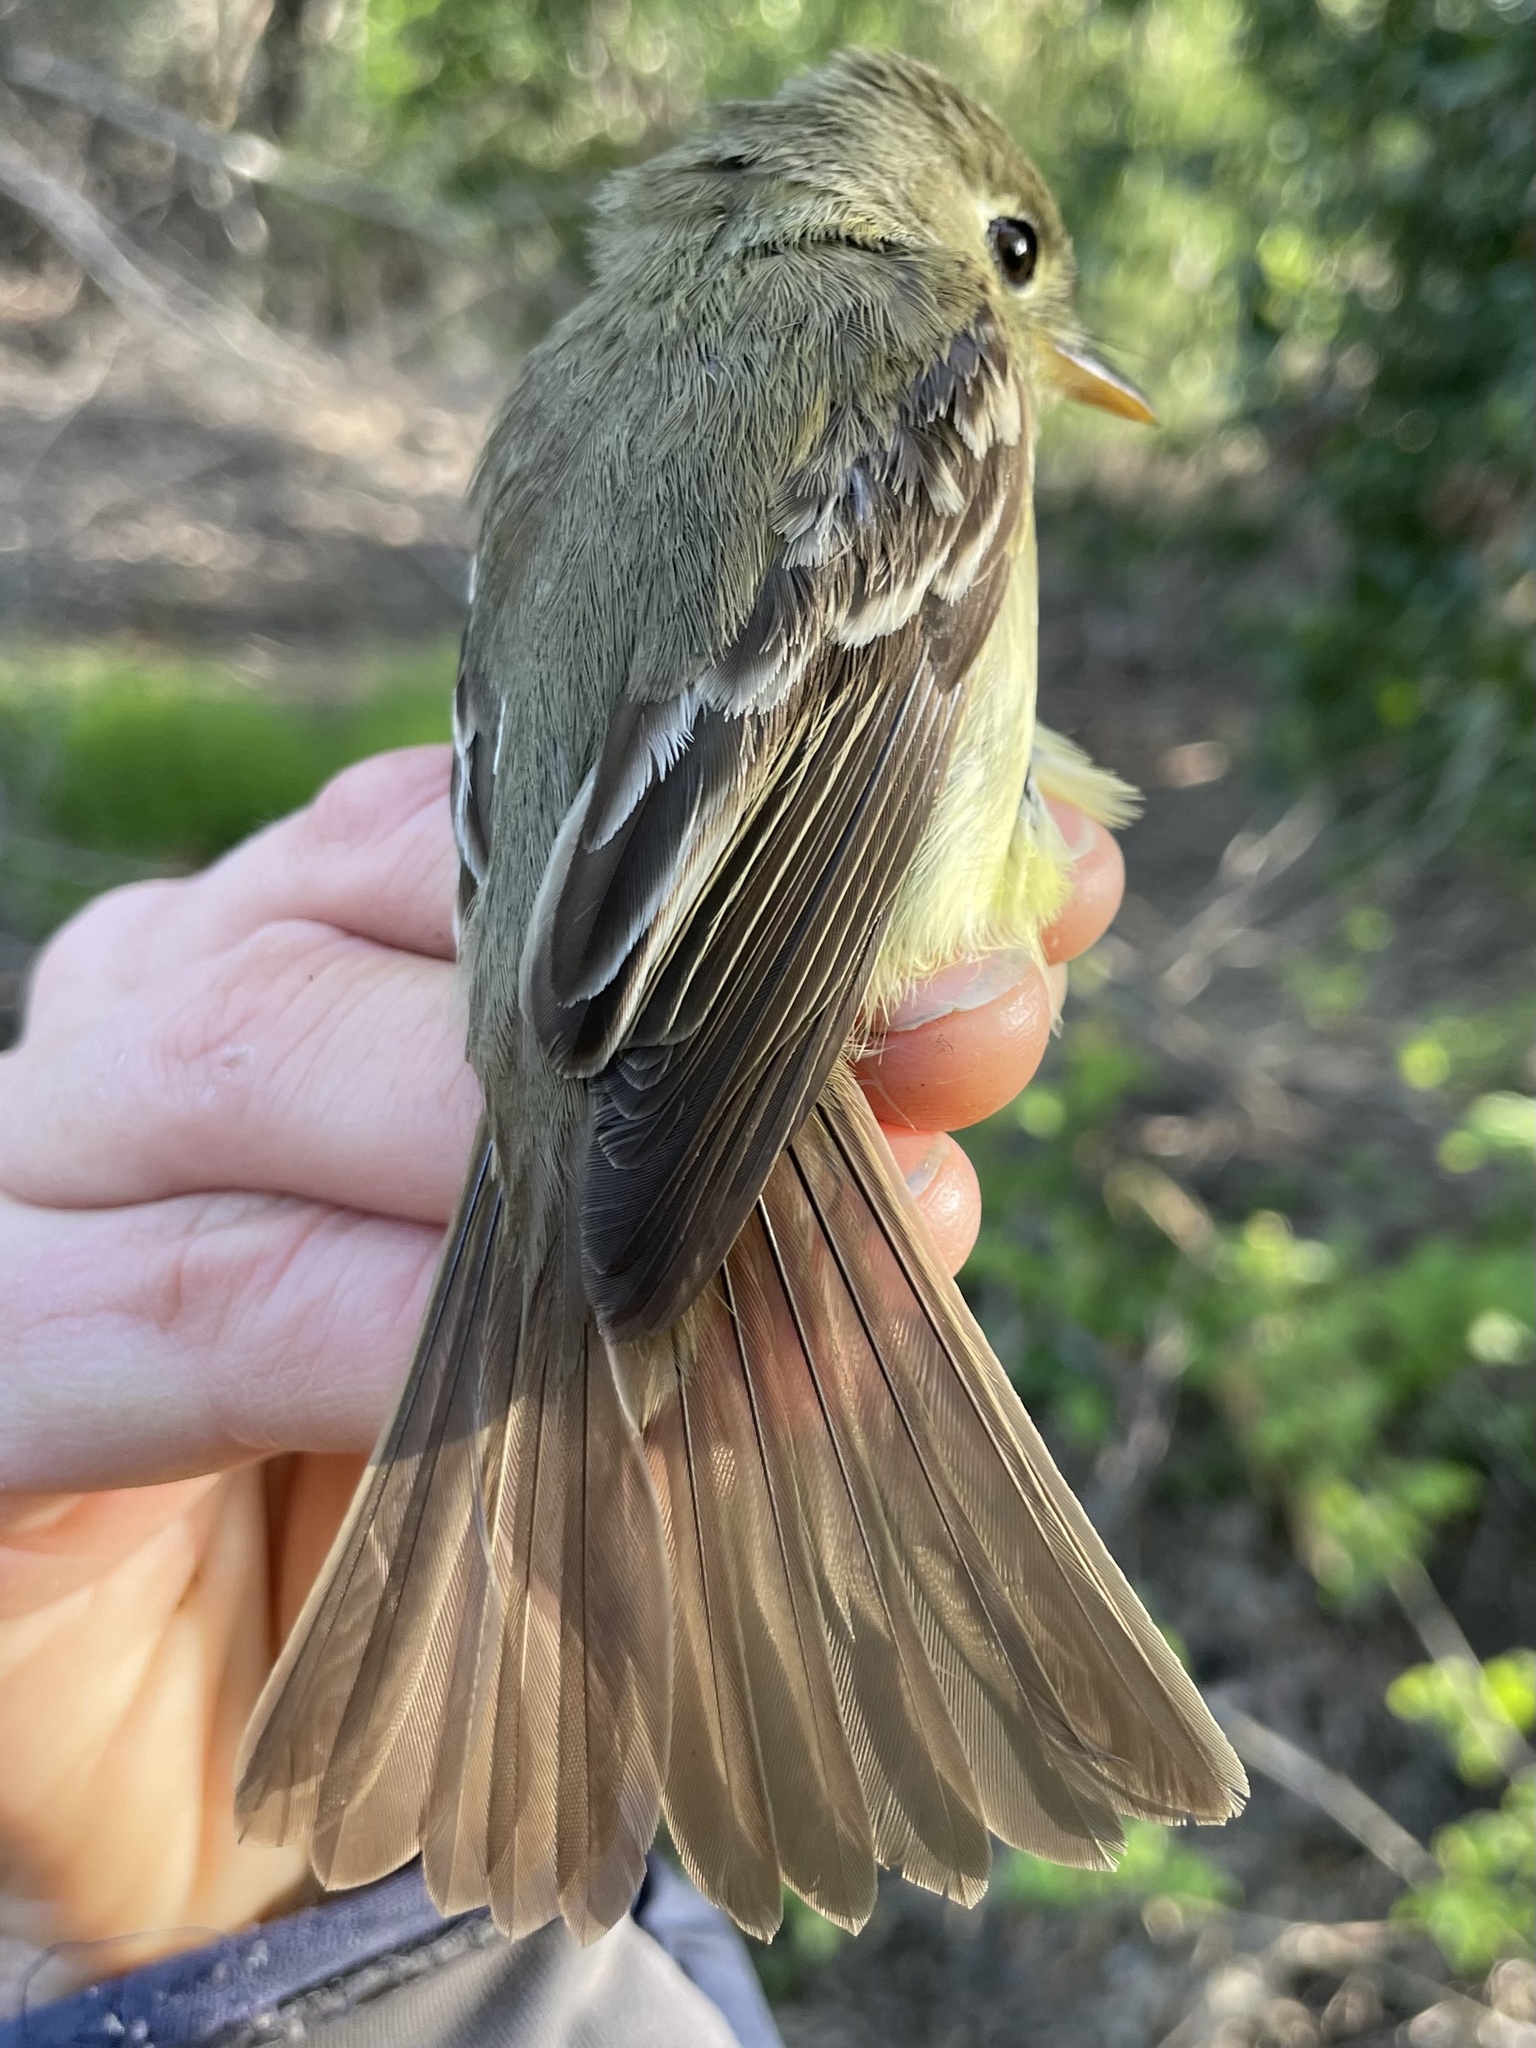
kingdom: Animalia
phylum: Chordata
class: Aves
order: Passeriformes
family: Tyrannidae
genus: Empidonax
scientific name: Empidonax difficilis
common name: Pacific-slope flycatcher
